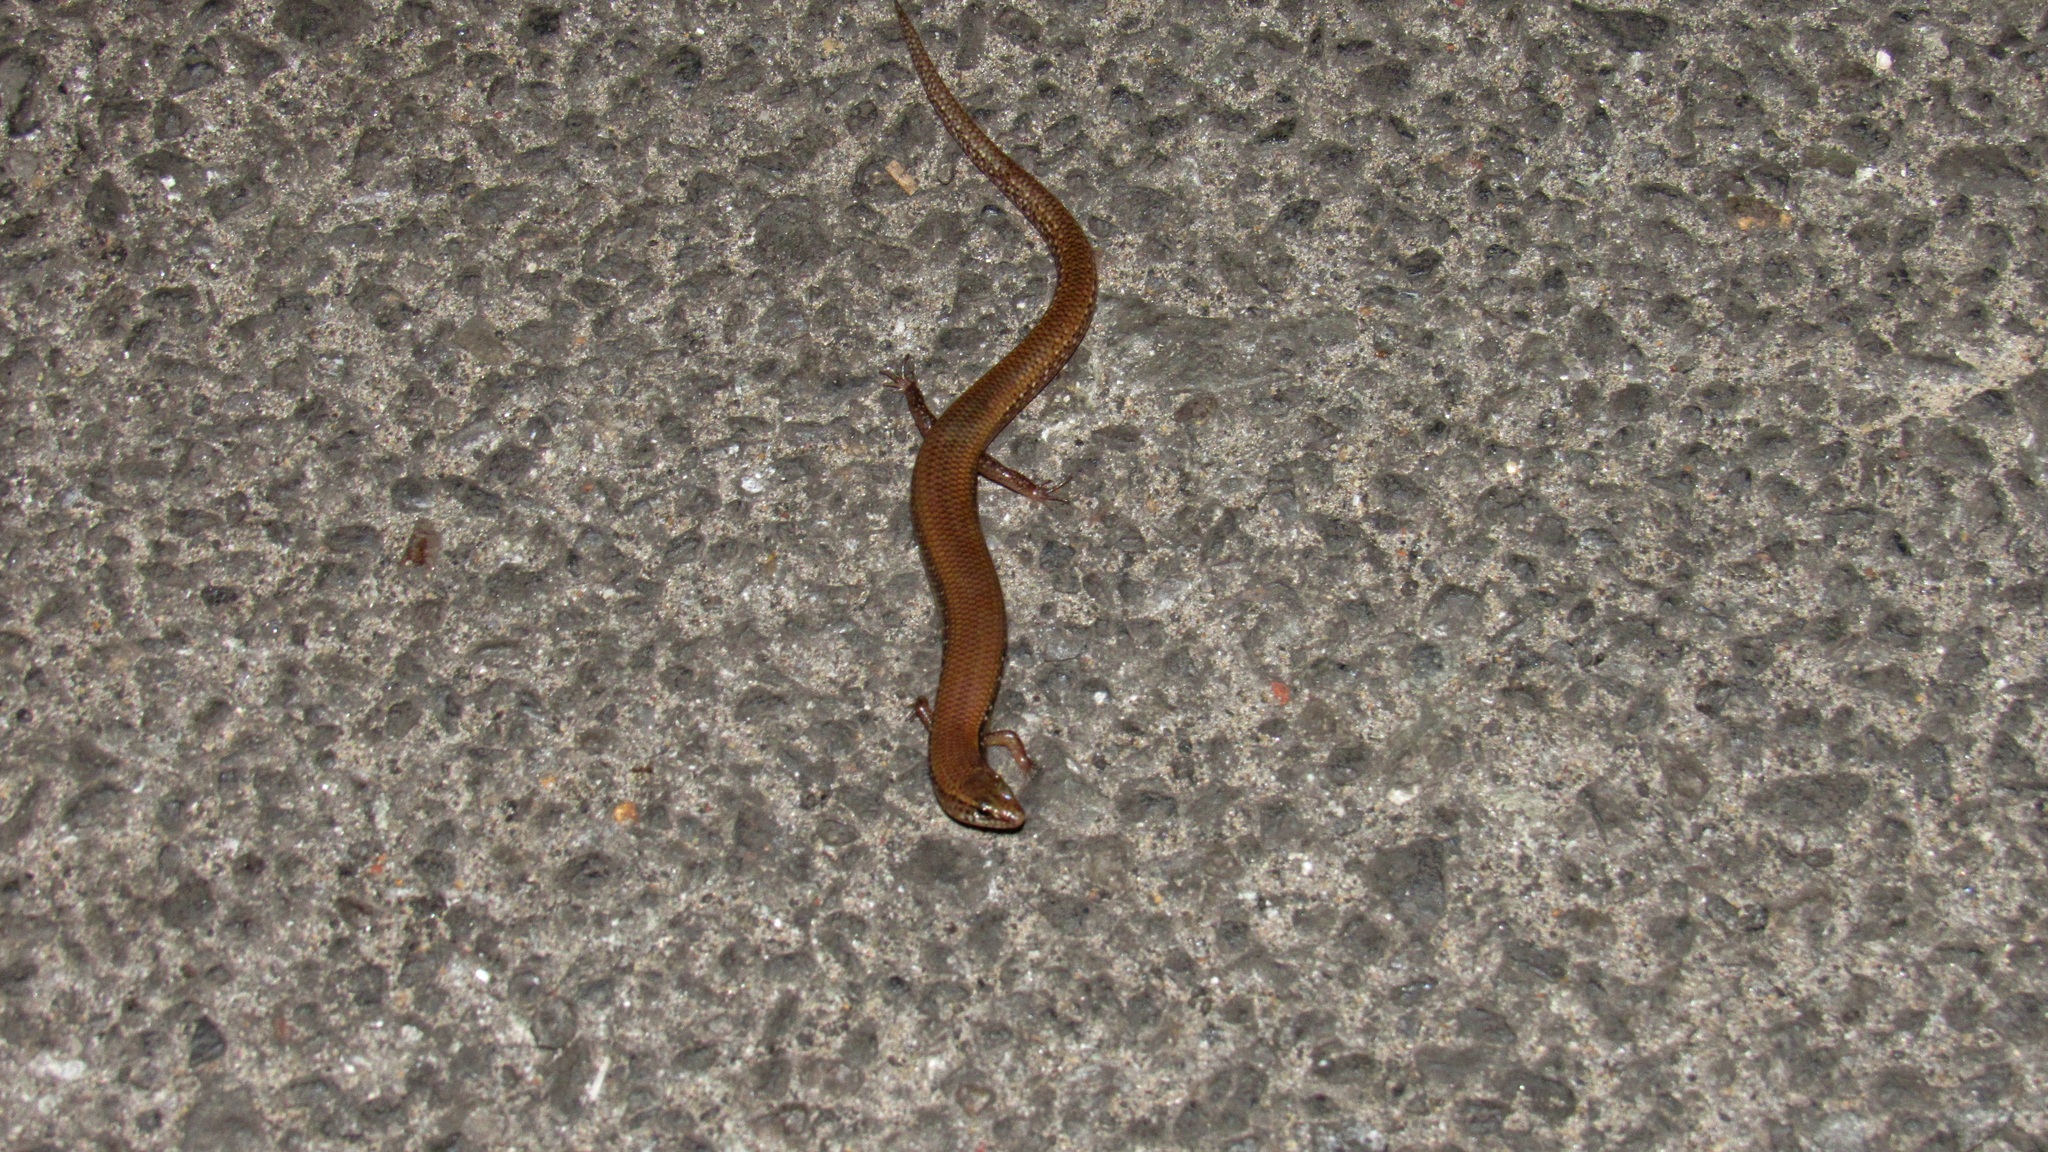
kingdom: Animalia
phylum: Chordata
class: Squamata
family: Scincidae
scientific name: Scincidae
